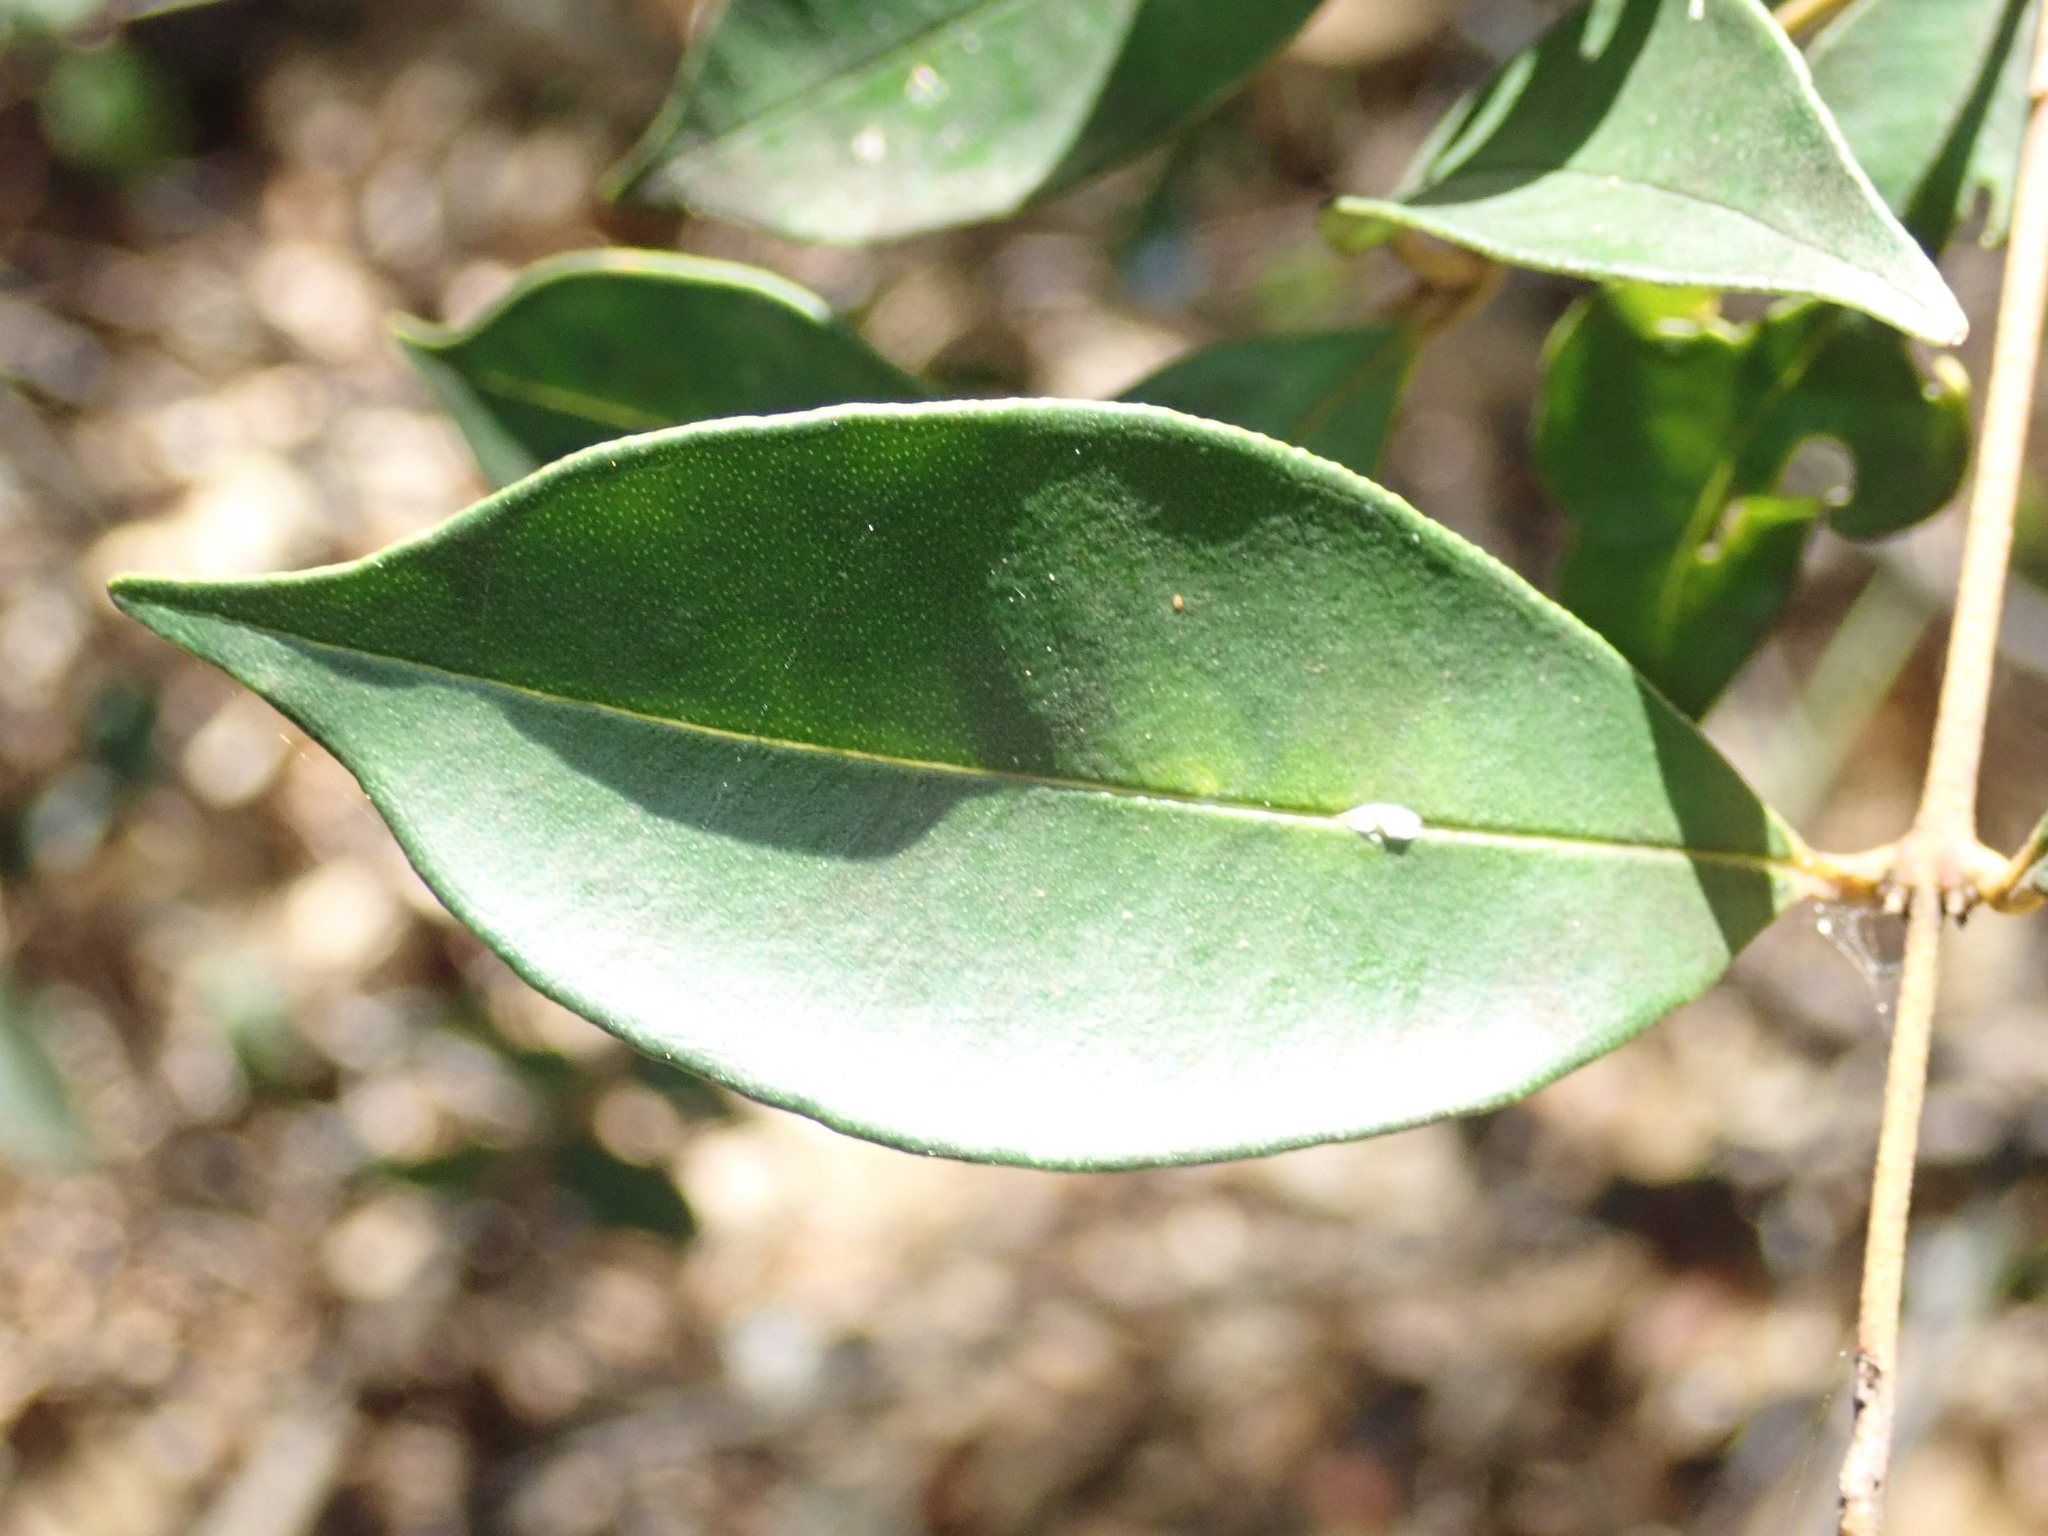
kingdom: Plantae
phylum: Tracheophyta
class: Magnoliopsida
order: Myrtales
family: Myrtaceae
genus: Syzygium
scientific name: Syzygium smithii
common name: Lilly-pilly
